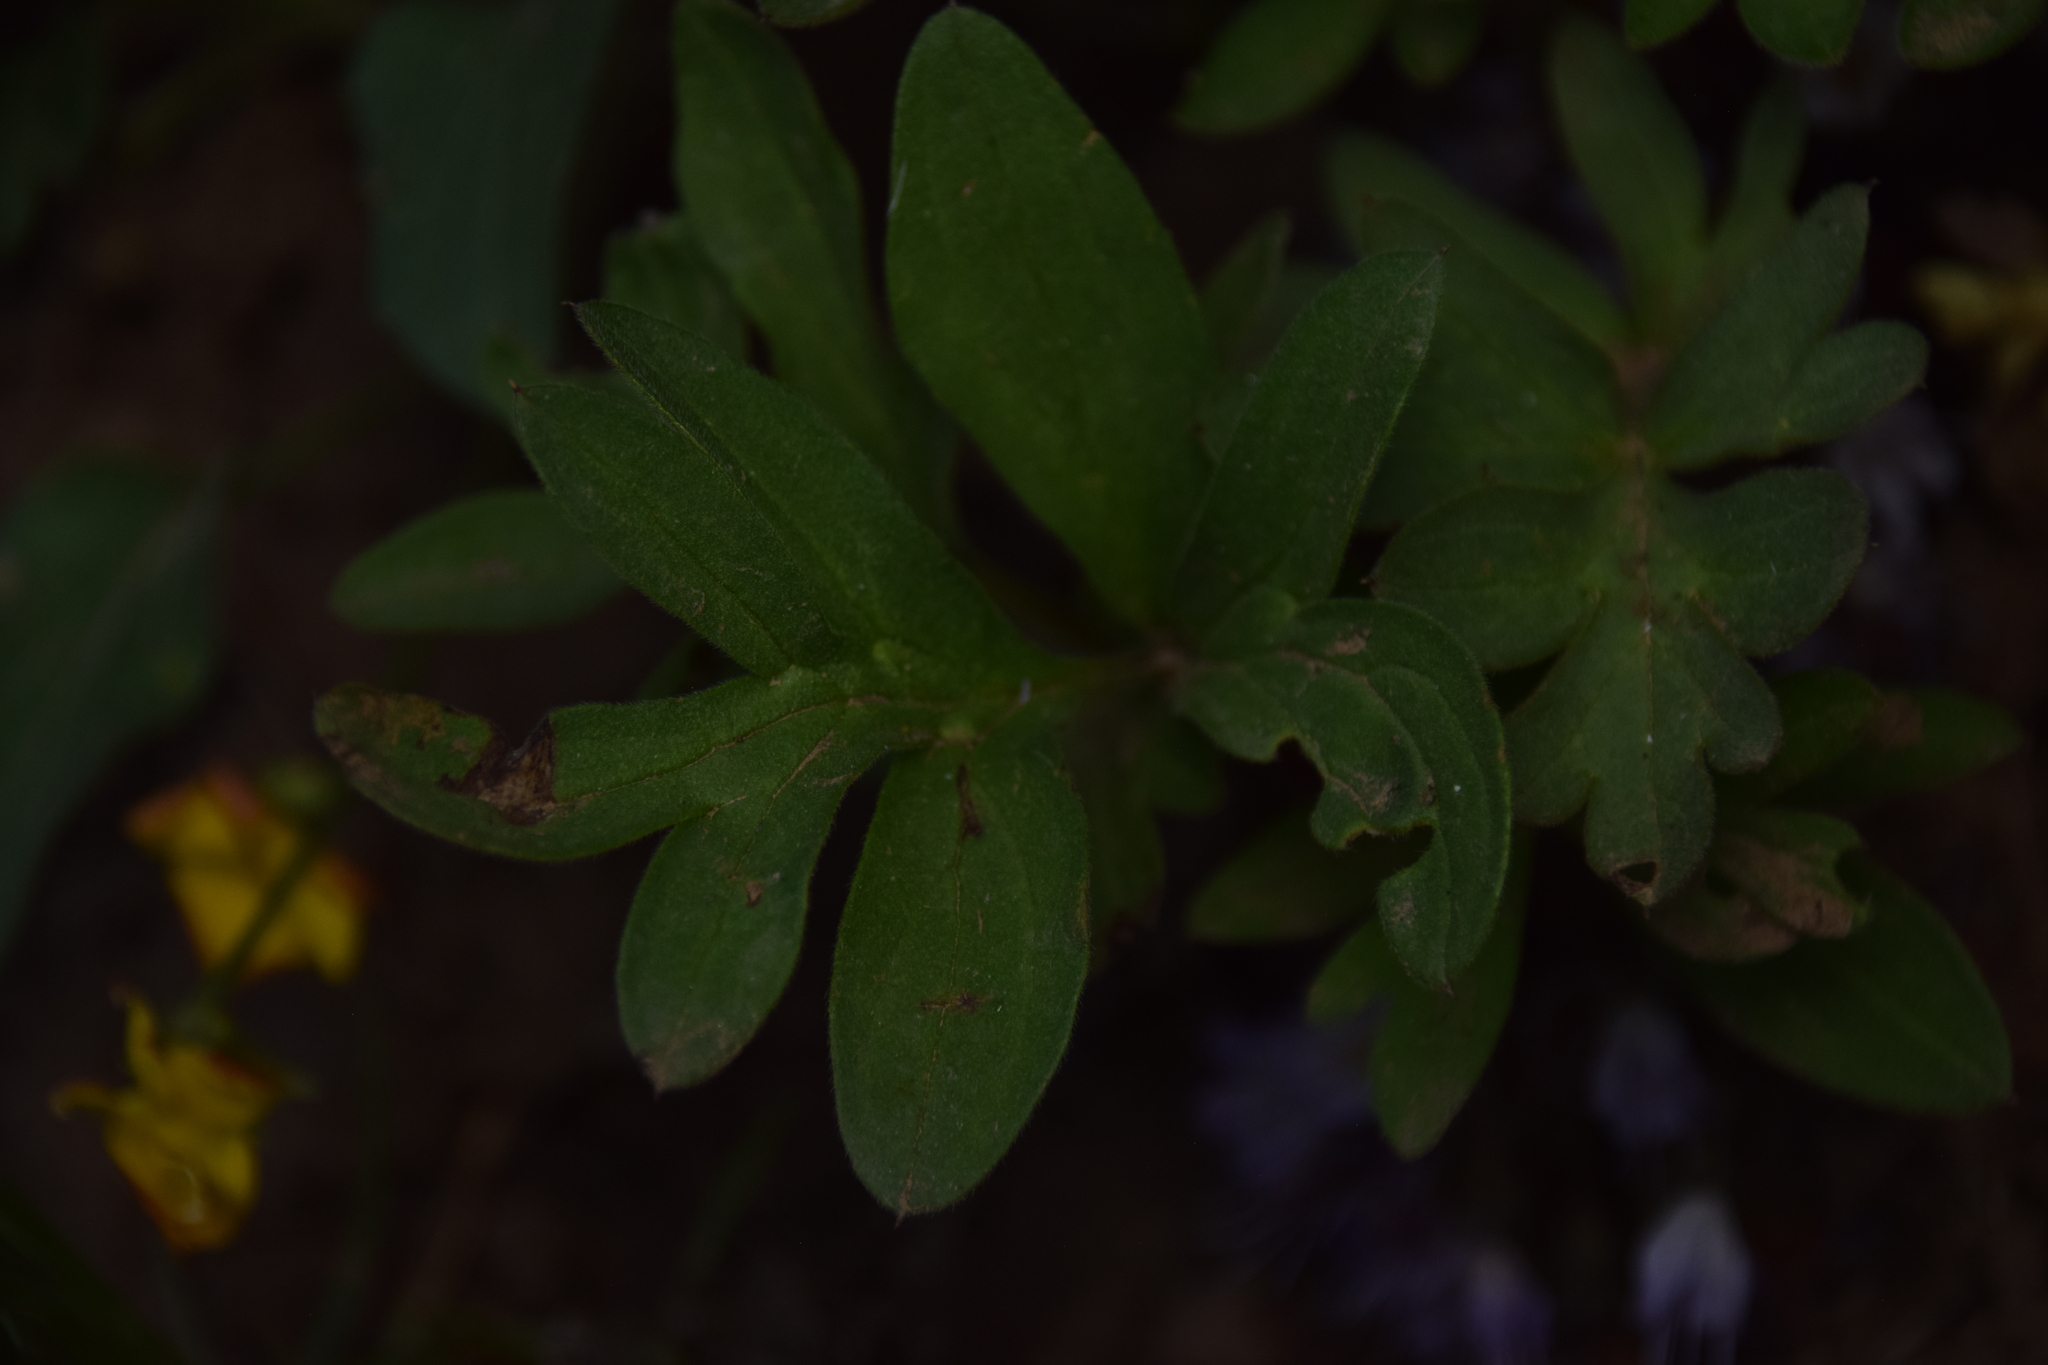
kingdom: Plantae
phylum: Tracheophyta
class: Magnoliopsida
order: Boraginales
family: Hydrophyllaceae
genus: Hydrophyllum
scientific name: Hydrophyllum alpestre
